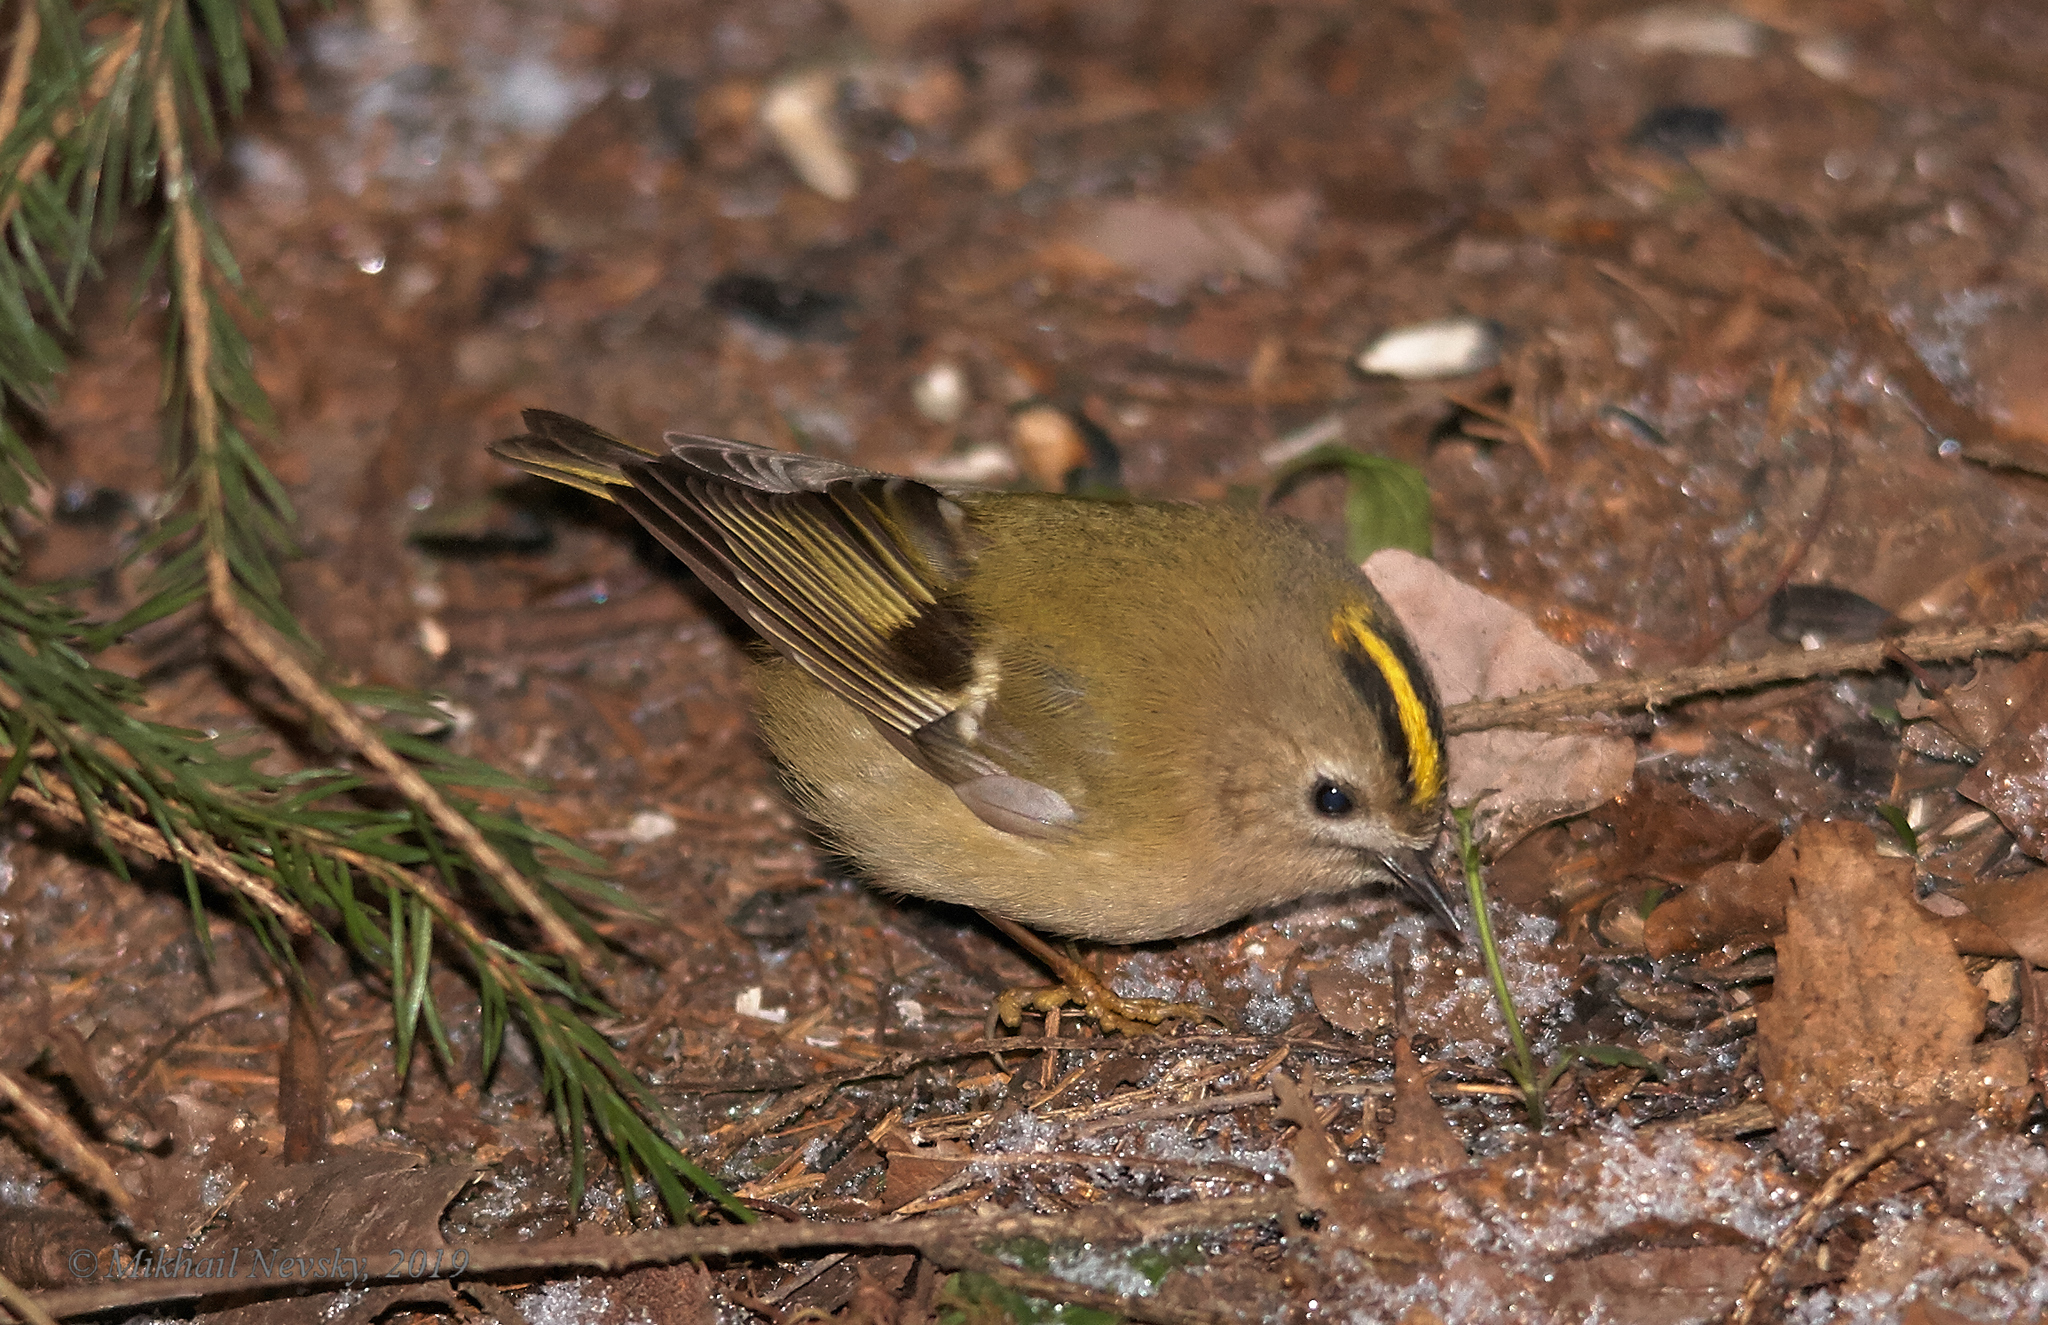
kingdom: Animalia
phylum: Chordata
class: Aves
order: Passeriformes
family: Regulidae
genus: Regulus
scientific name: Regulus regulus
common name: Goldcrest
